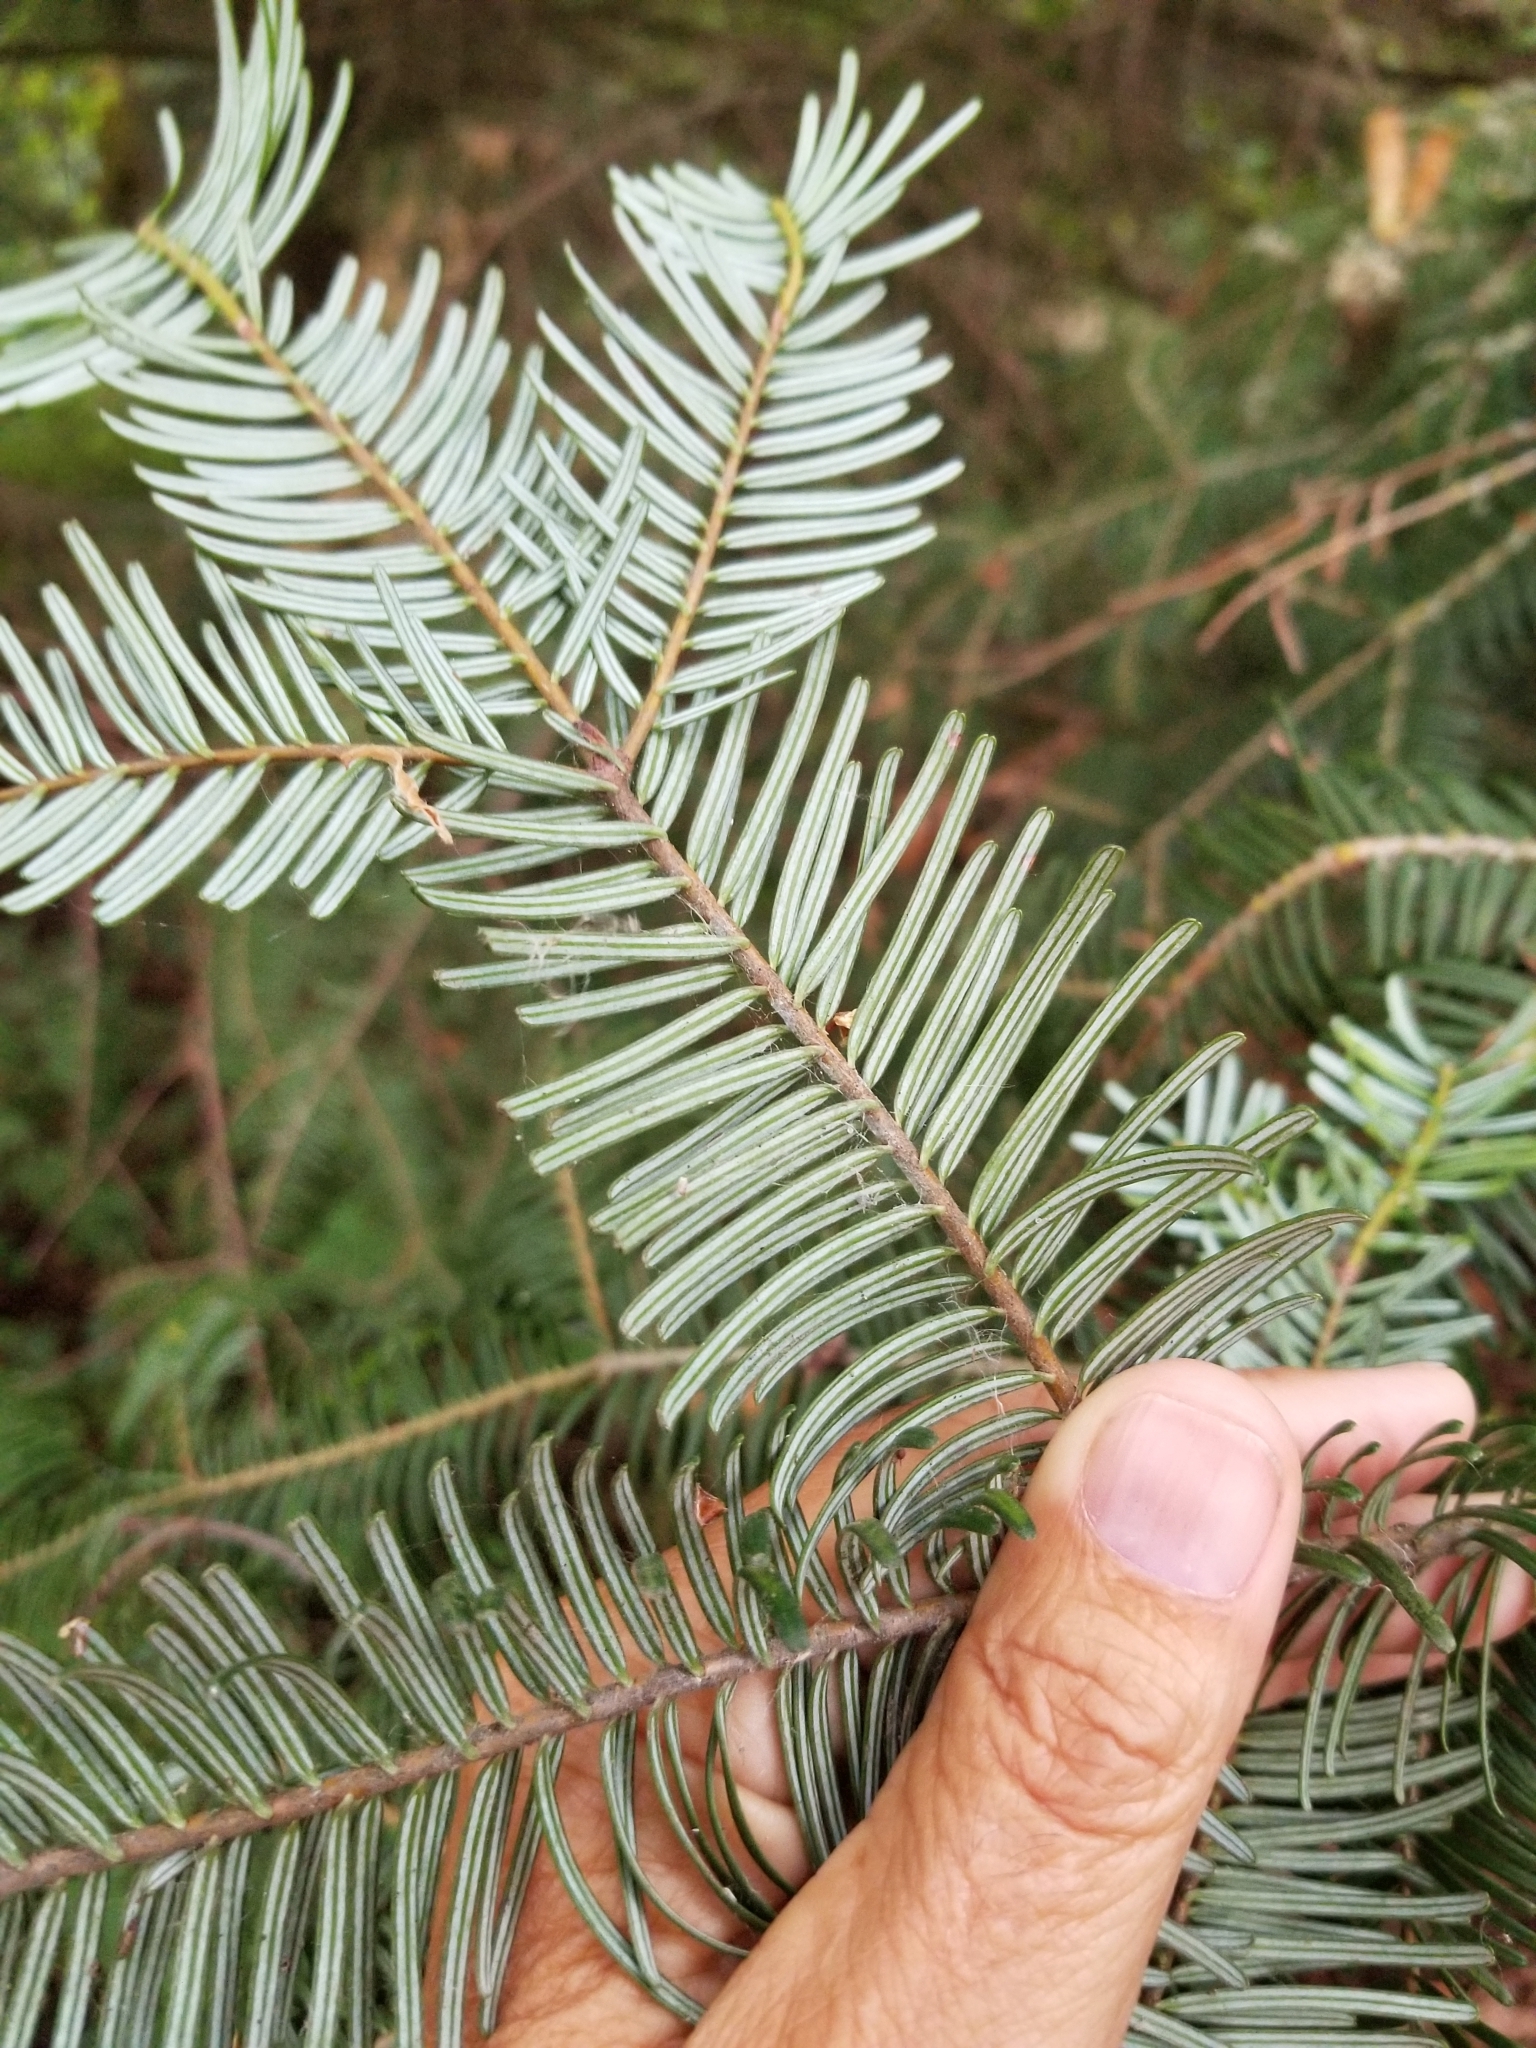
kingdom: Plantae
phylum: Tracheophyta
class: Pinopsida
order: Pinales
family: Pinaceae
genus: Abies
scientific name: Abies grandis
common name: Giant fir
